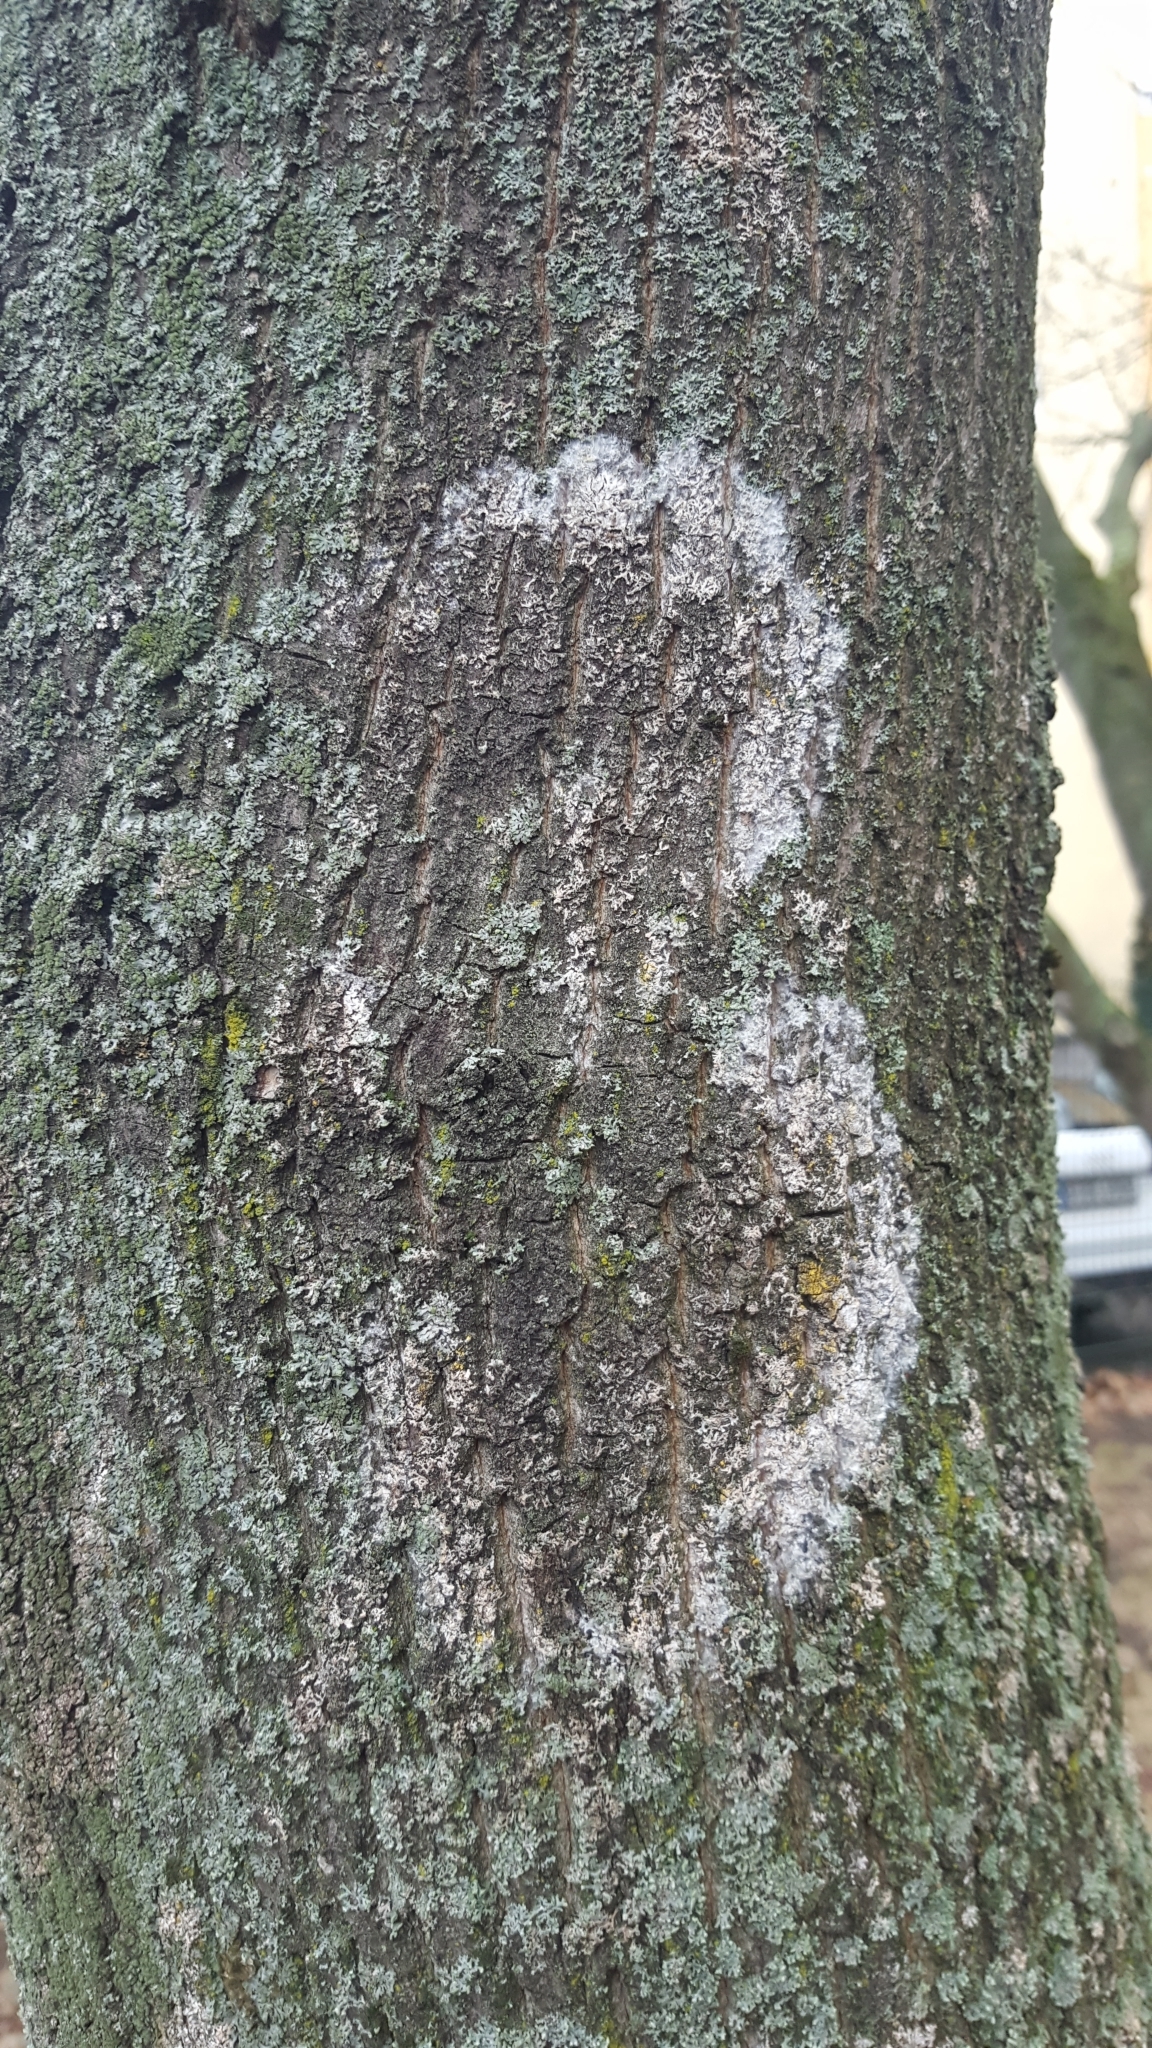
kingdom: Fungi
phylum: Basidiomycota
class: Agaricomycetes
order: Atheliales
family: Atheliaceae
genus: Athelia
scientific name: Athelia arachnoidea
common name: Candelabra duster
